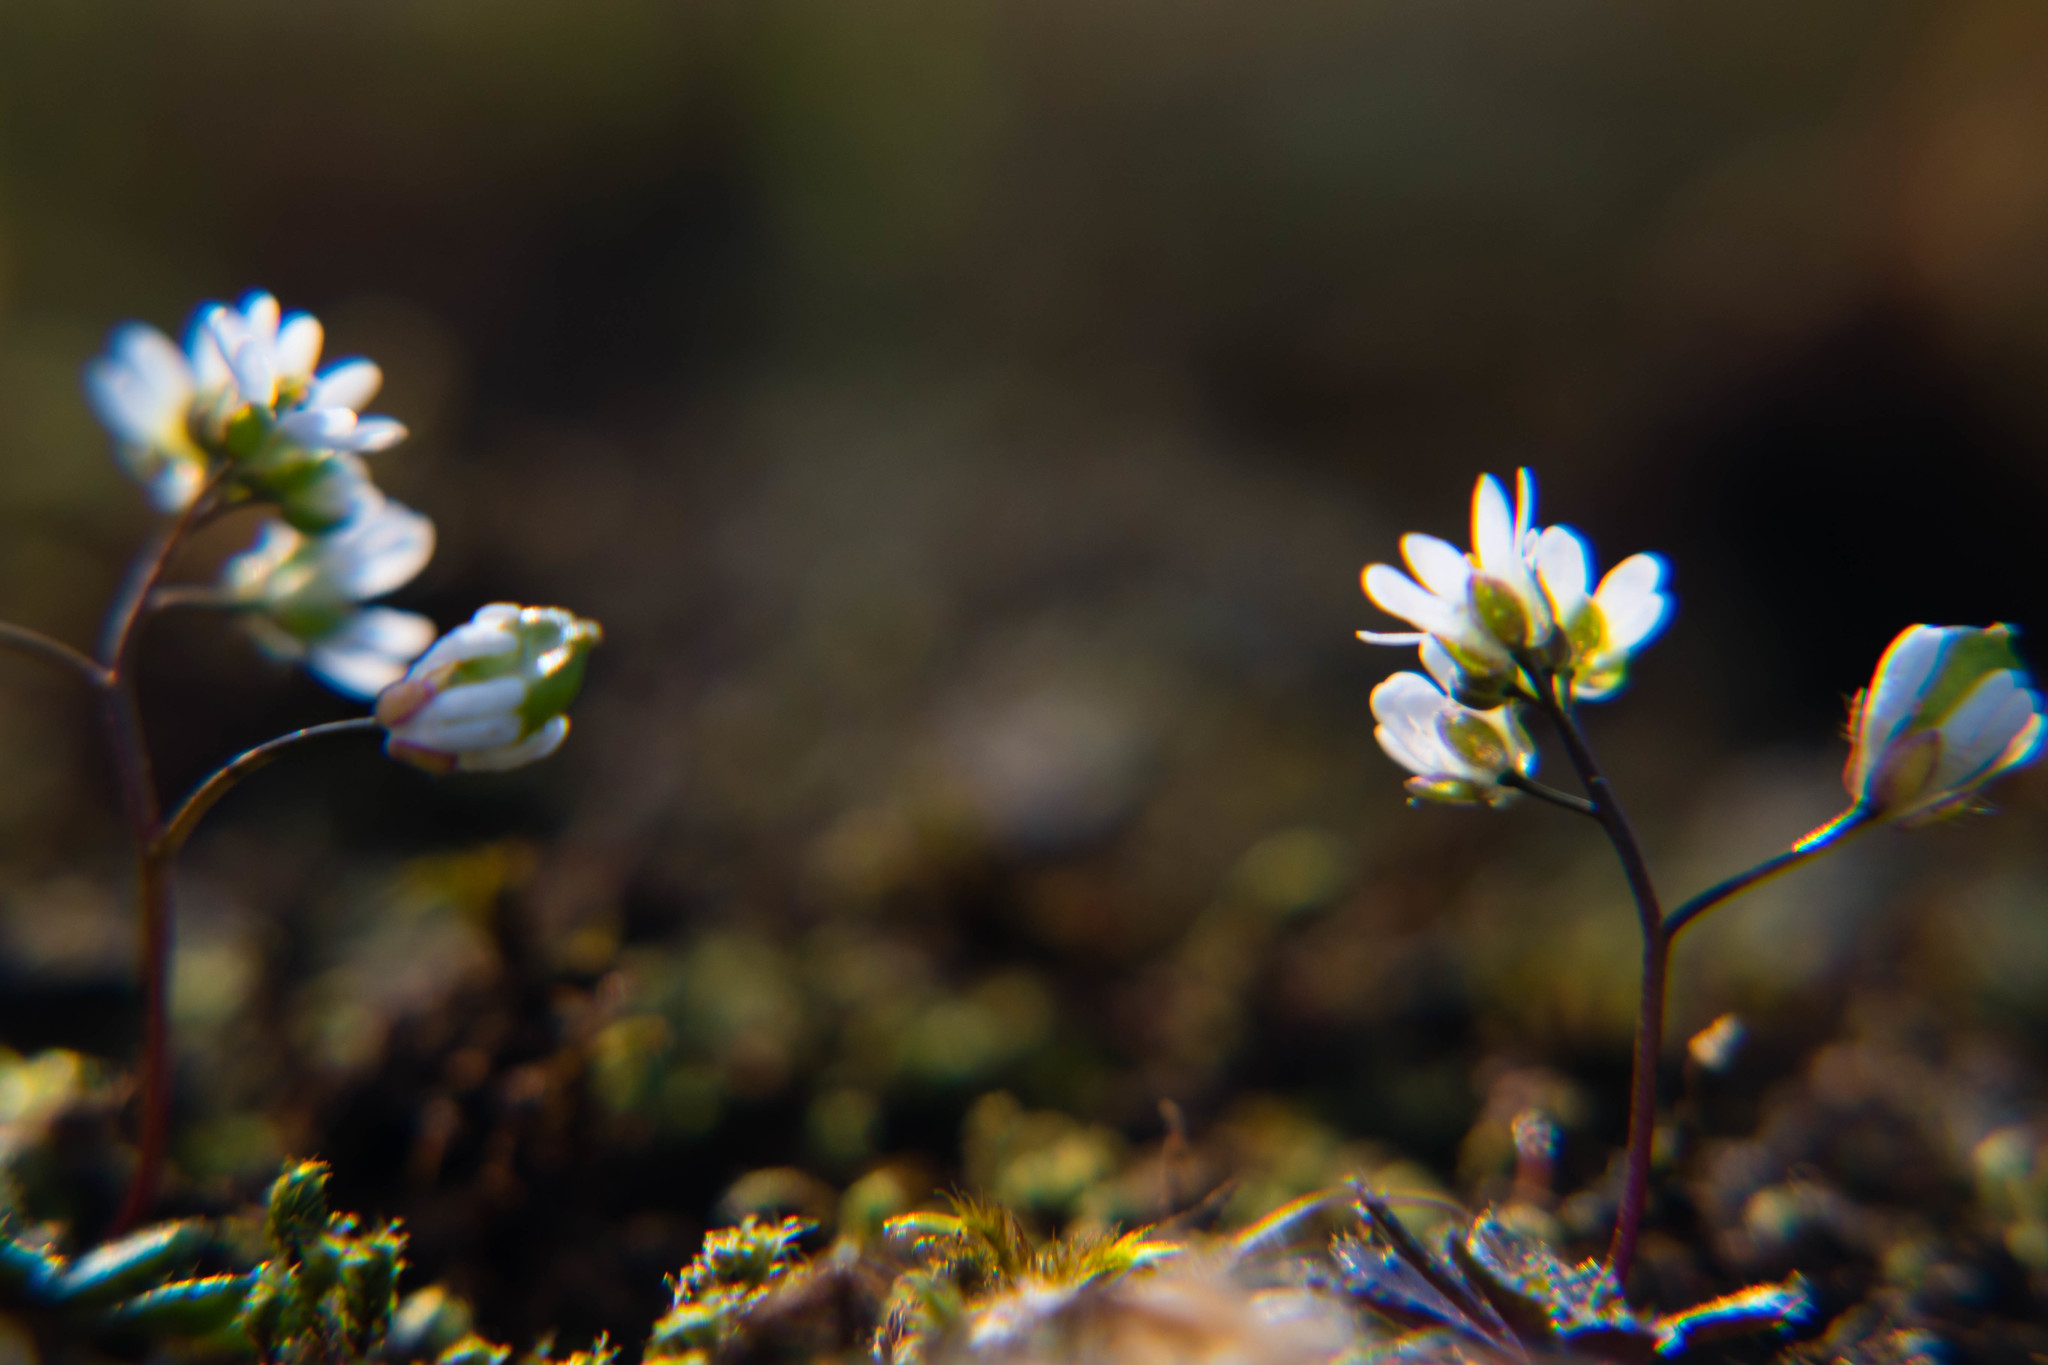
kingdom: Plantae
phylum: Tracheophyta
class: Magnoliopsida
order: Brassicales
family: Brassicaceae
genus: Draba
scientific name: Draba verna
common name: Spring draba
